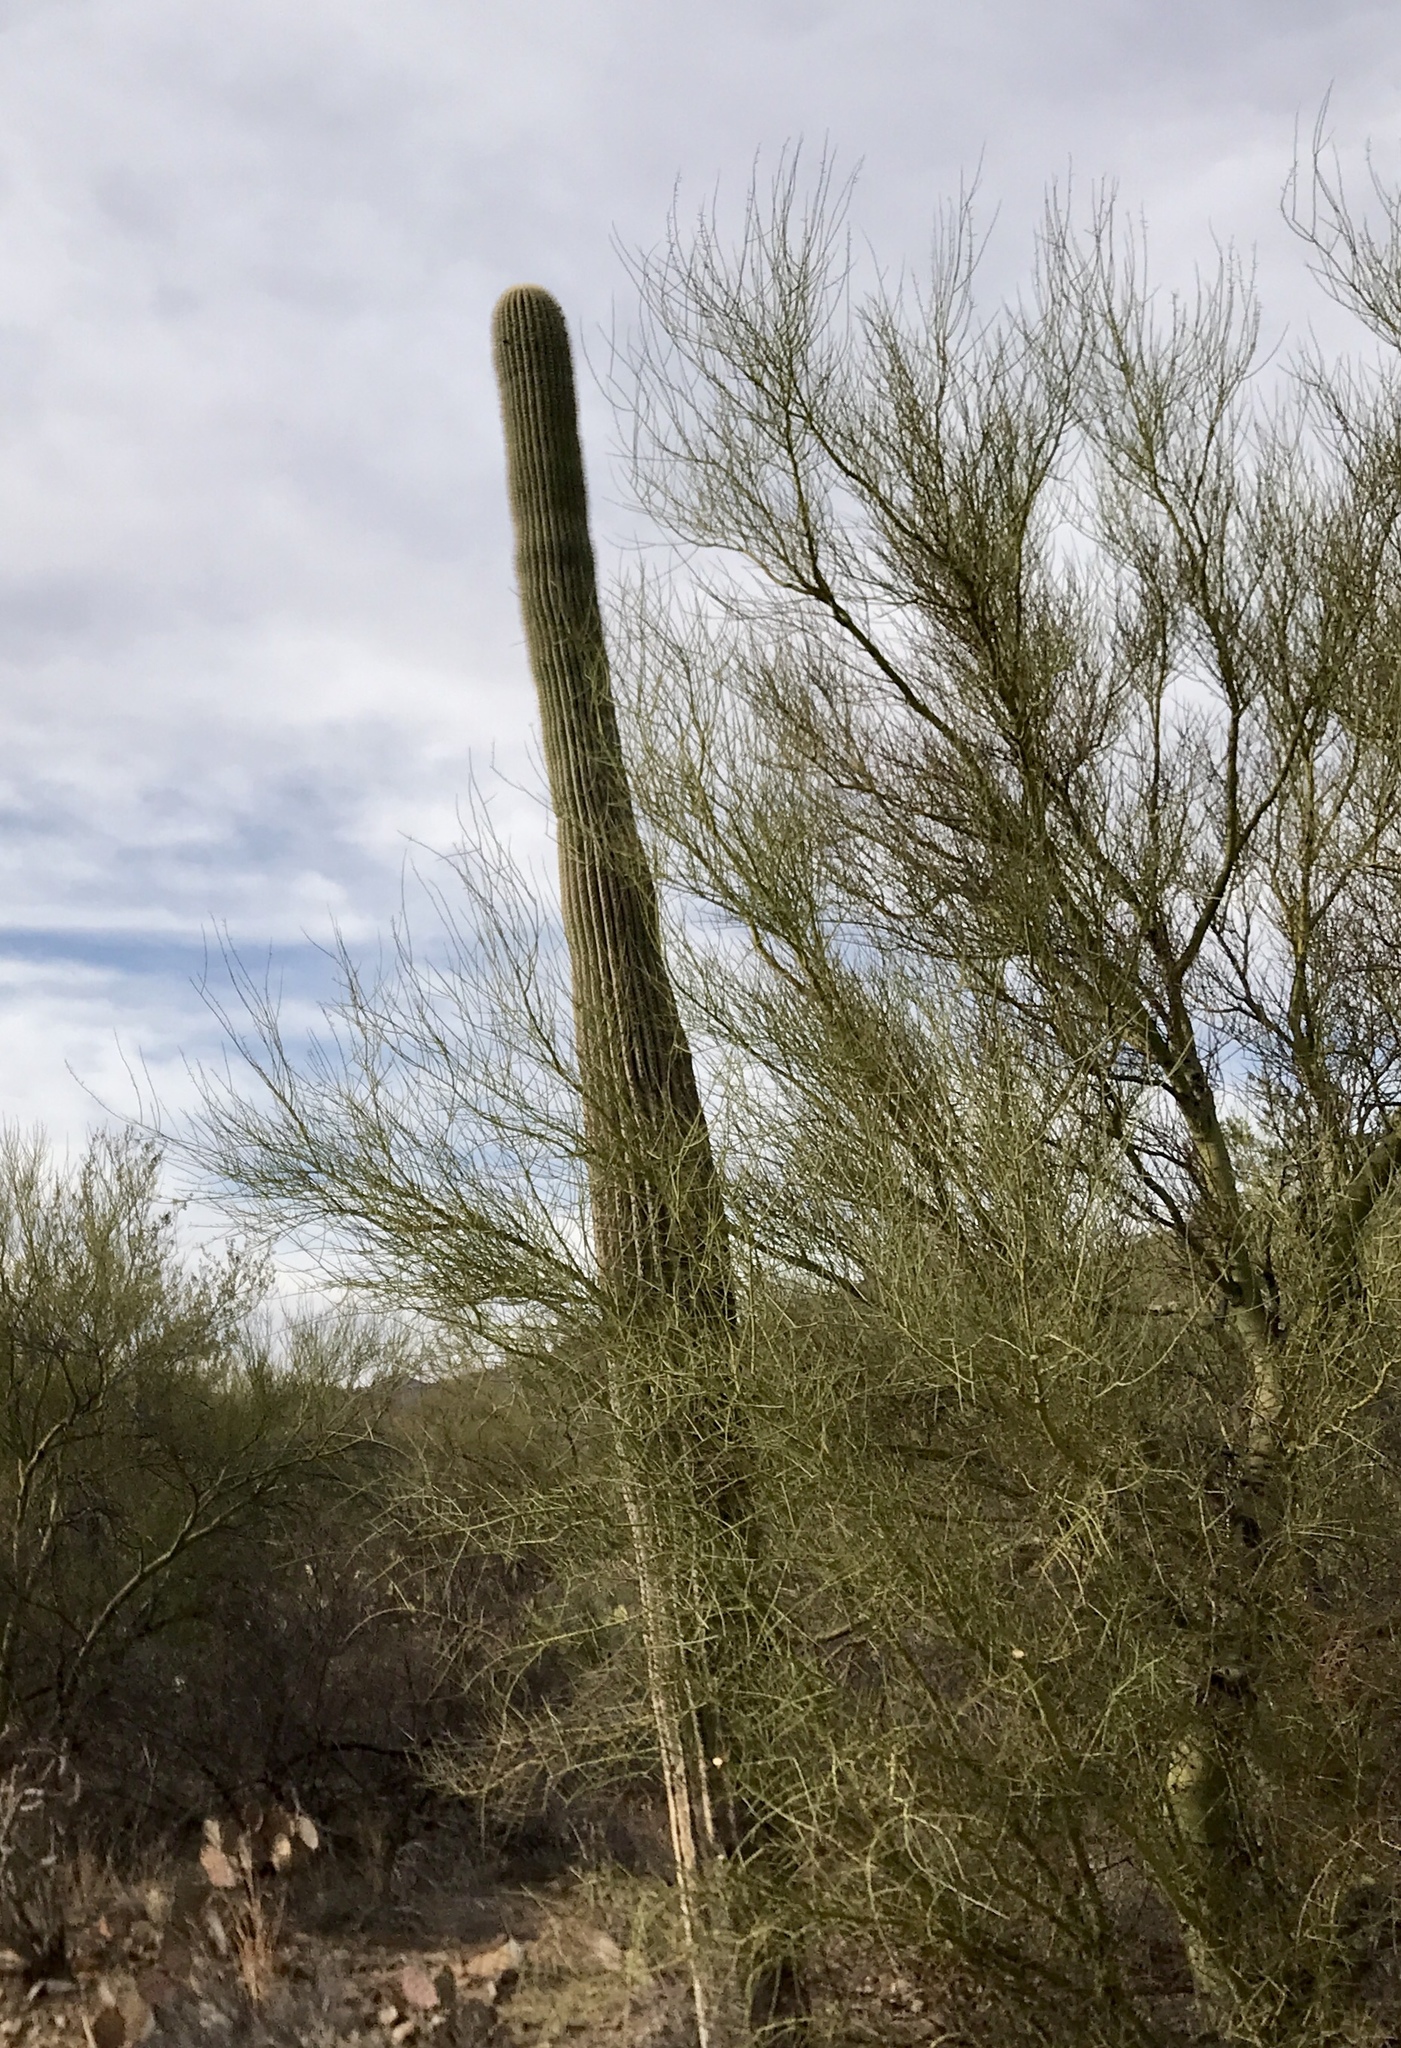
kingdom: Plantae
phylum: Tracheophyta
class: Magnoliopsida
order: Caryophyllales
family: Cactaceae
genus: Carnegiea
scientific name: Carnegiea gigantea
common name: Saguaro
